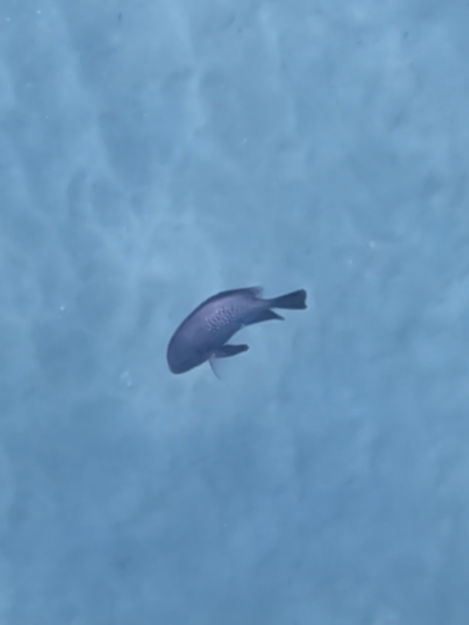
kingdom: Animalia
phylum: Chordata
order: Perciformes
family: Pomacentridae
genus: Dascyllus
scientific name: Dascyllus albisella
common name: Hawaiian dascyllus
